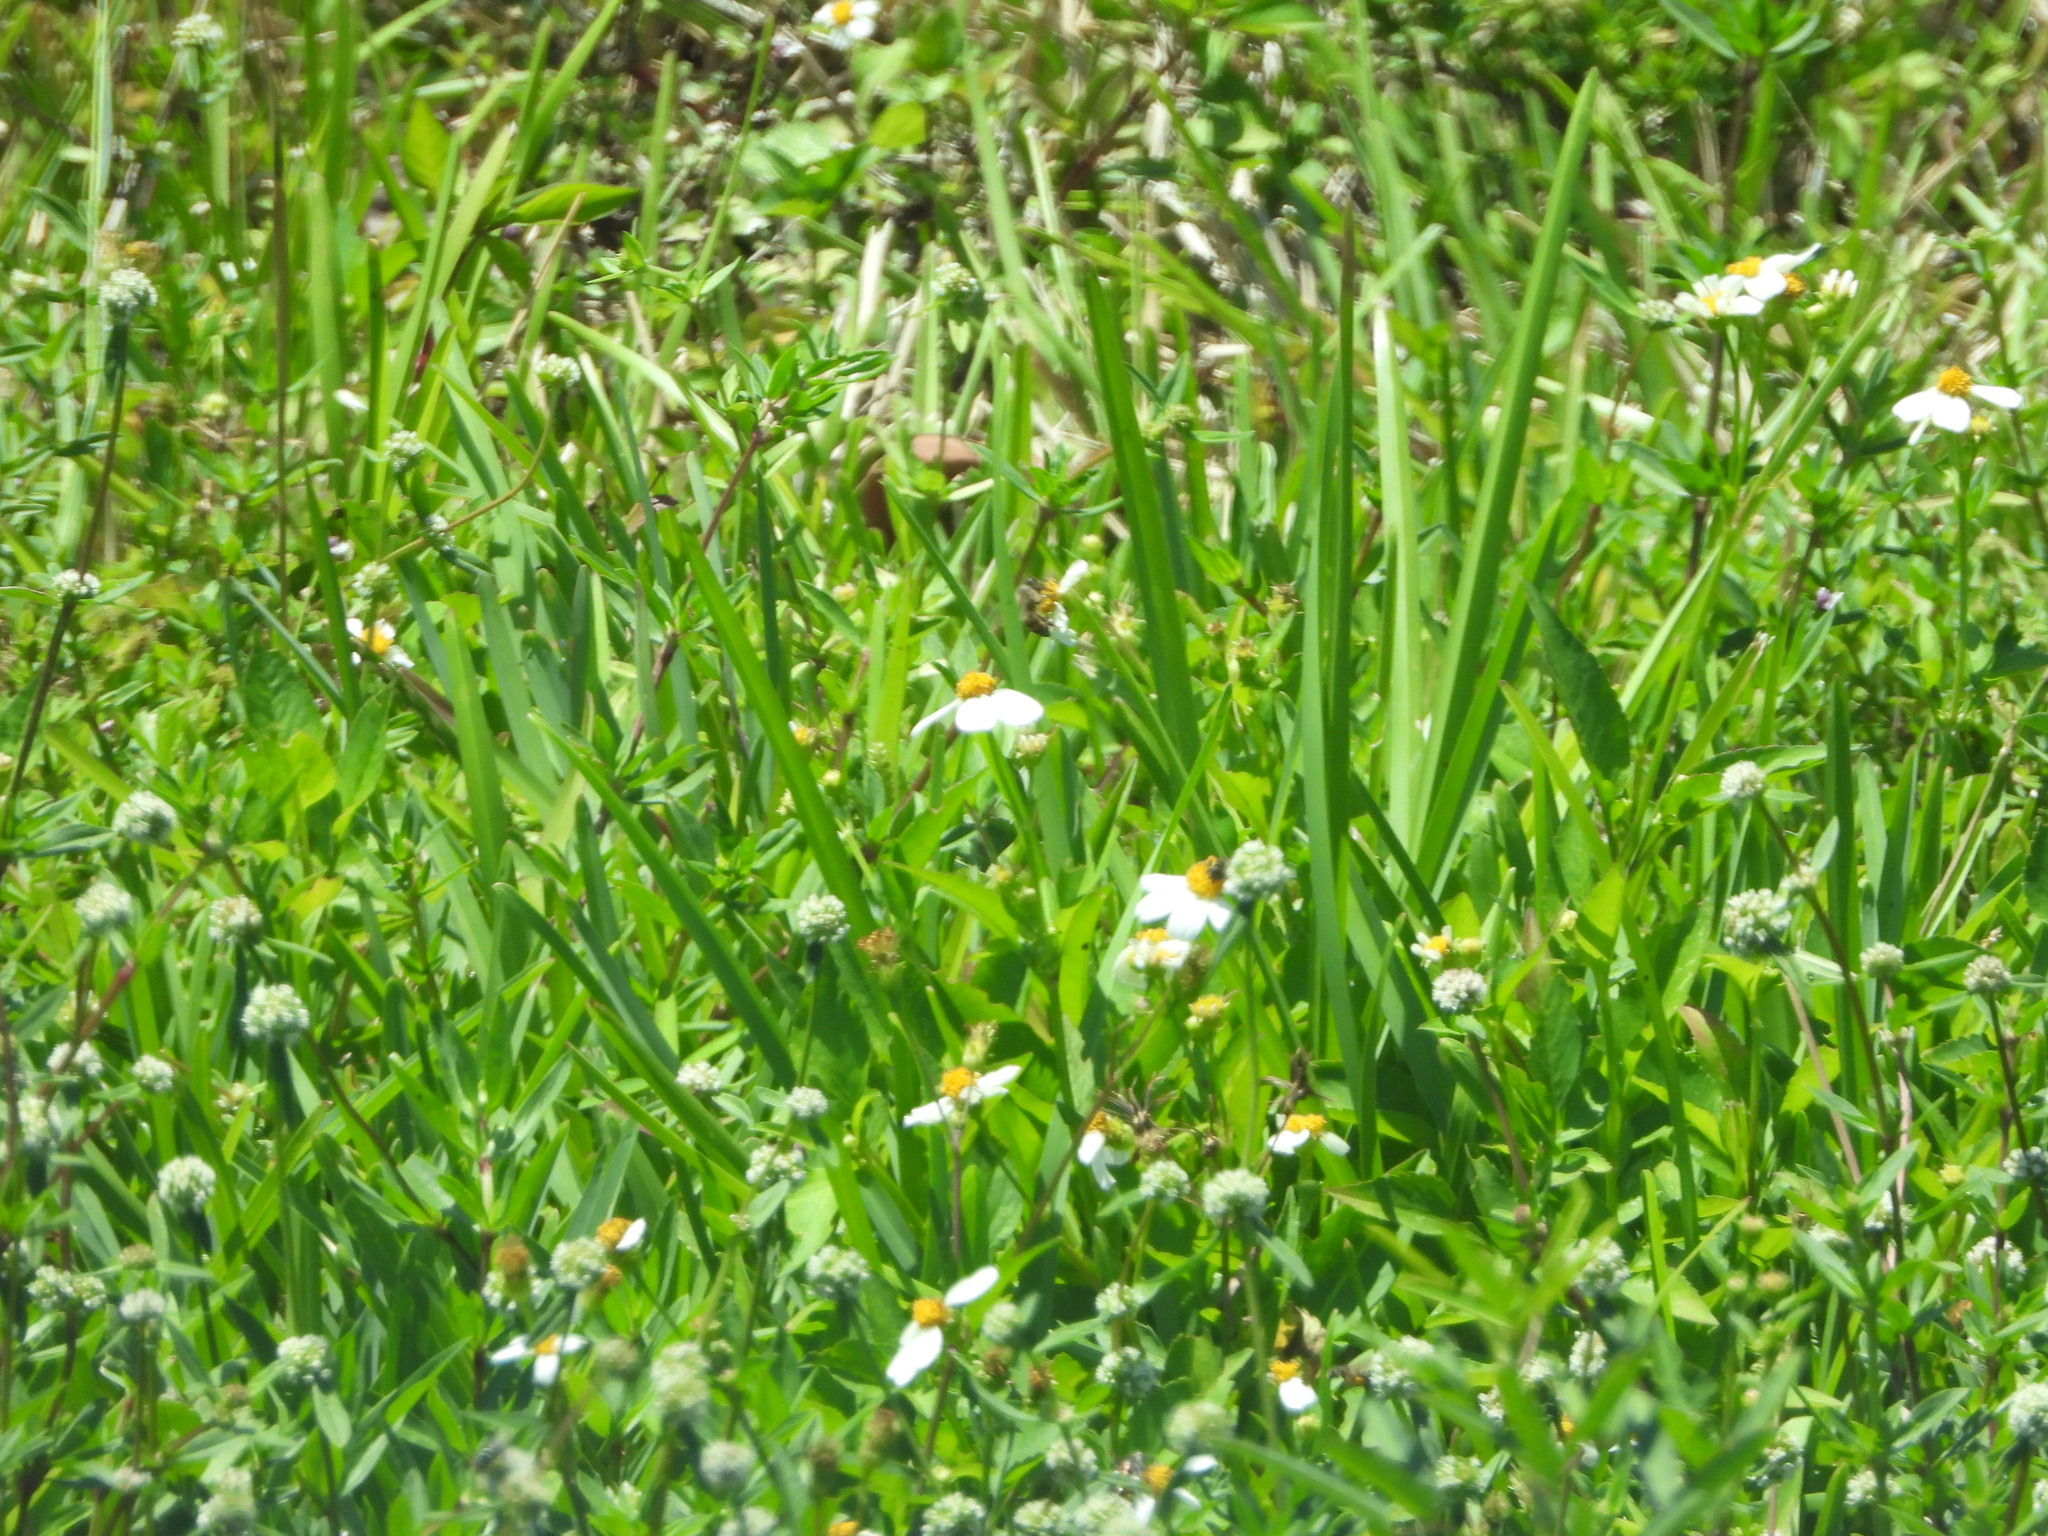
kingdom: Plantae
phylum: Tracheophyta
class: Magnoliopsida
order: Asterales
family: Asteraceae
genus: Bidens
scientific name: Bidens alba
